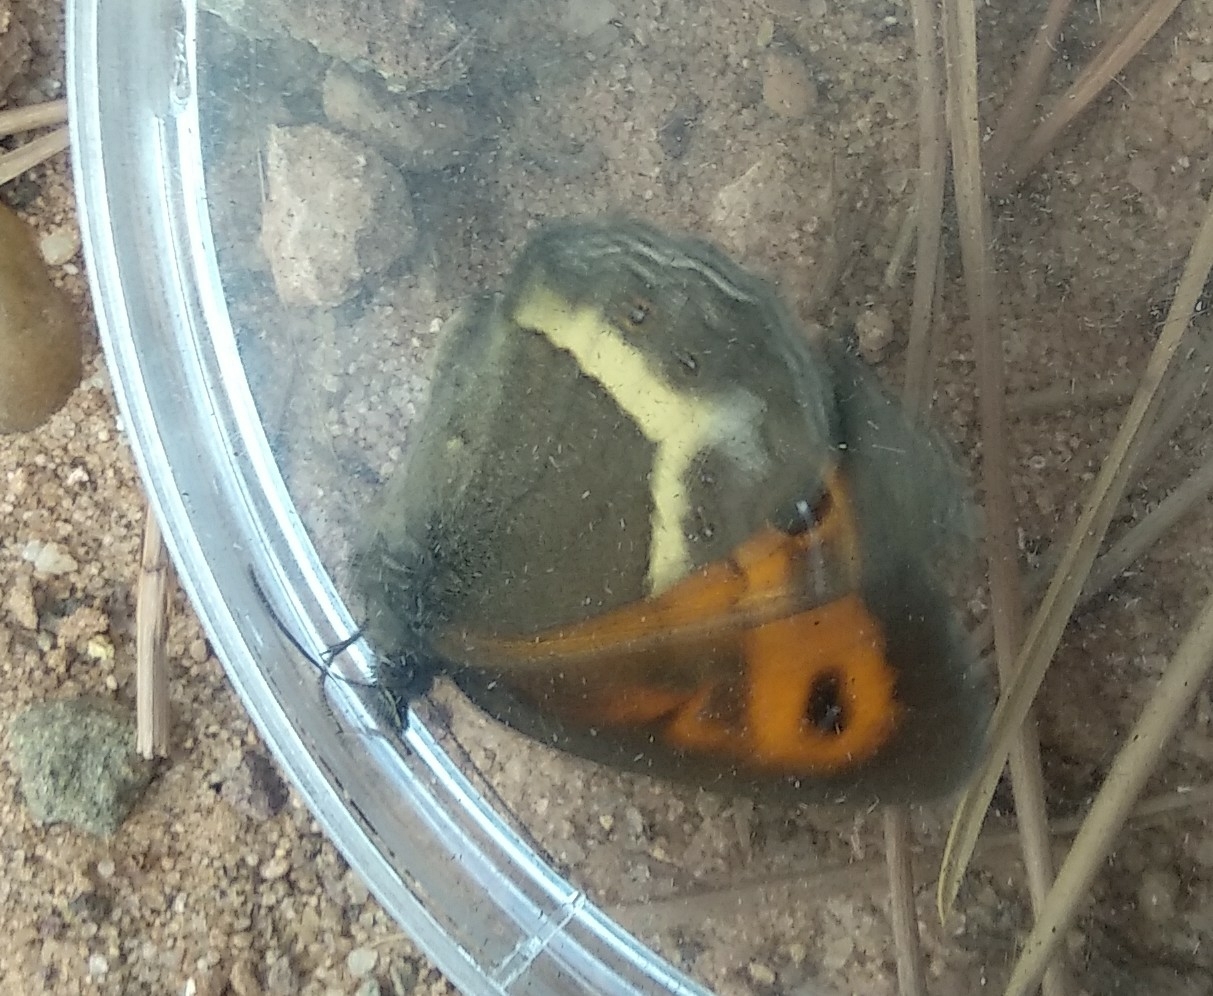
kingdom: Animalia
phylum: Arthropoda
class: Insecta
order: Lepidoptera
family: Nymphalidae
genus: Pyronia
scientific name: Pyronia bathseba
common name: Spanish gatekeeper
